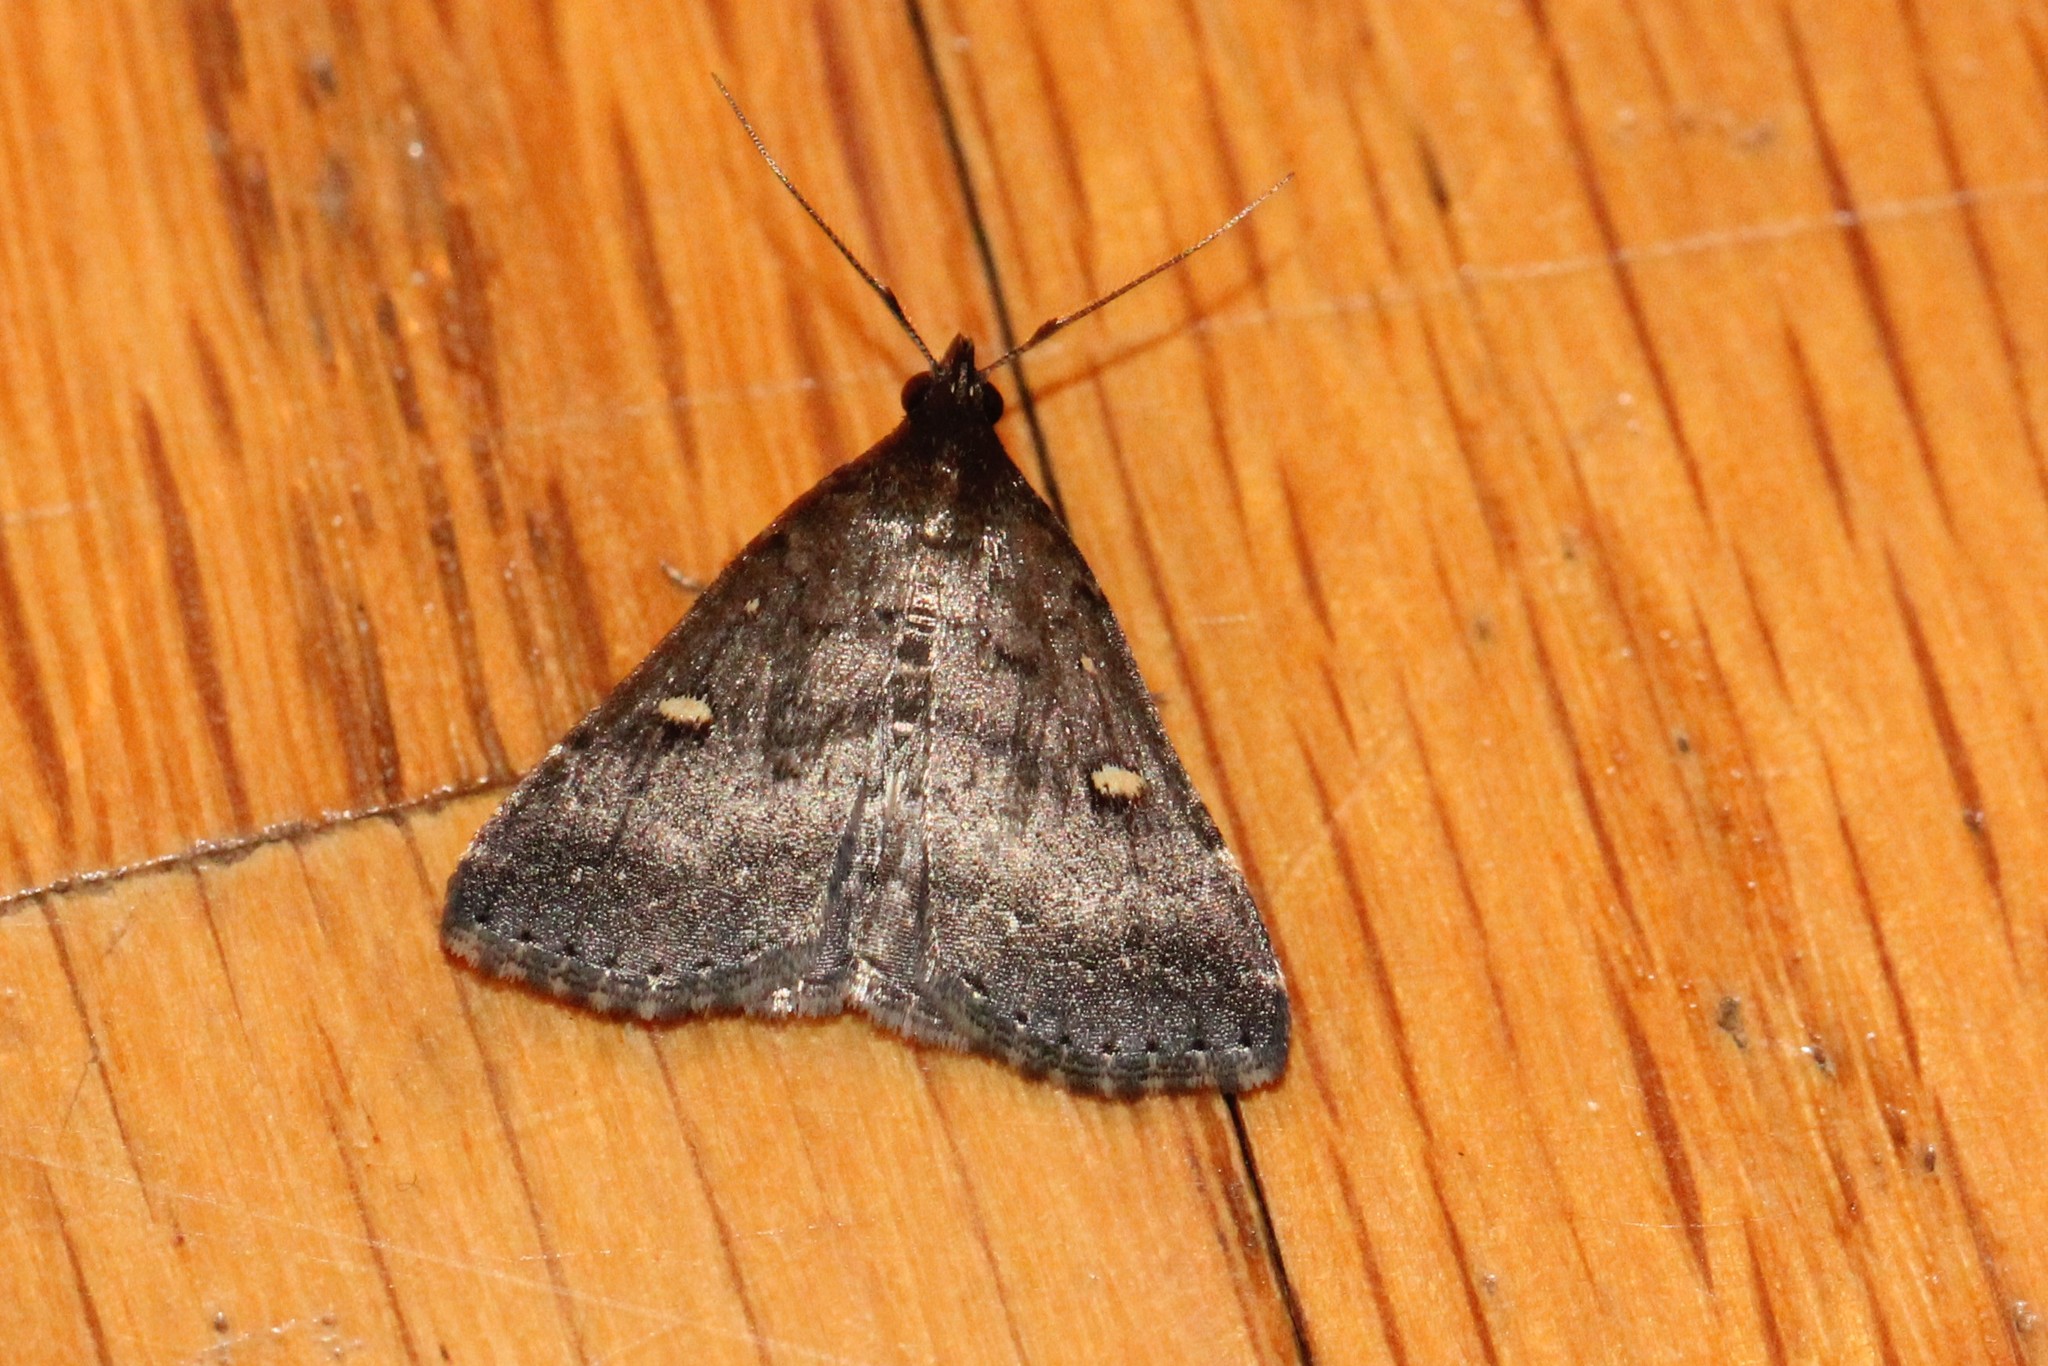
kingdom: Animalia
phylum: Arthropoda
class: Insecta
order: Lepidoptera
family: Erebidae
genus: Tetanolita
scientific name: Tetanolita mynesalis
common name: Smoky tetanolita moth
